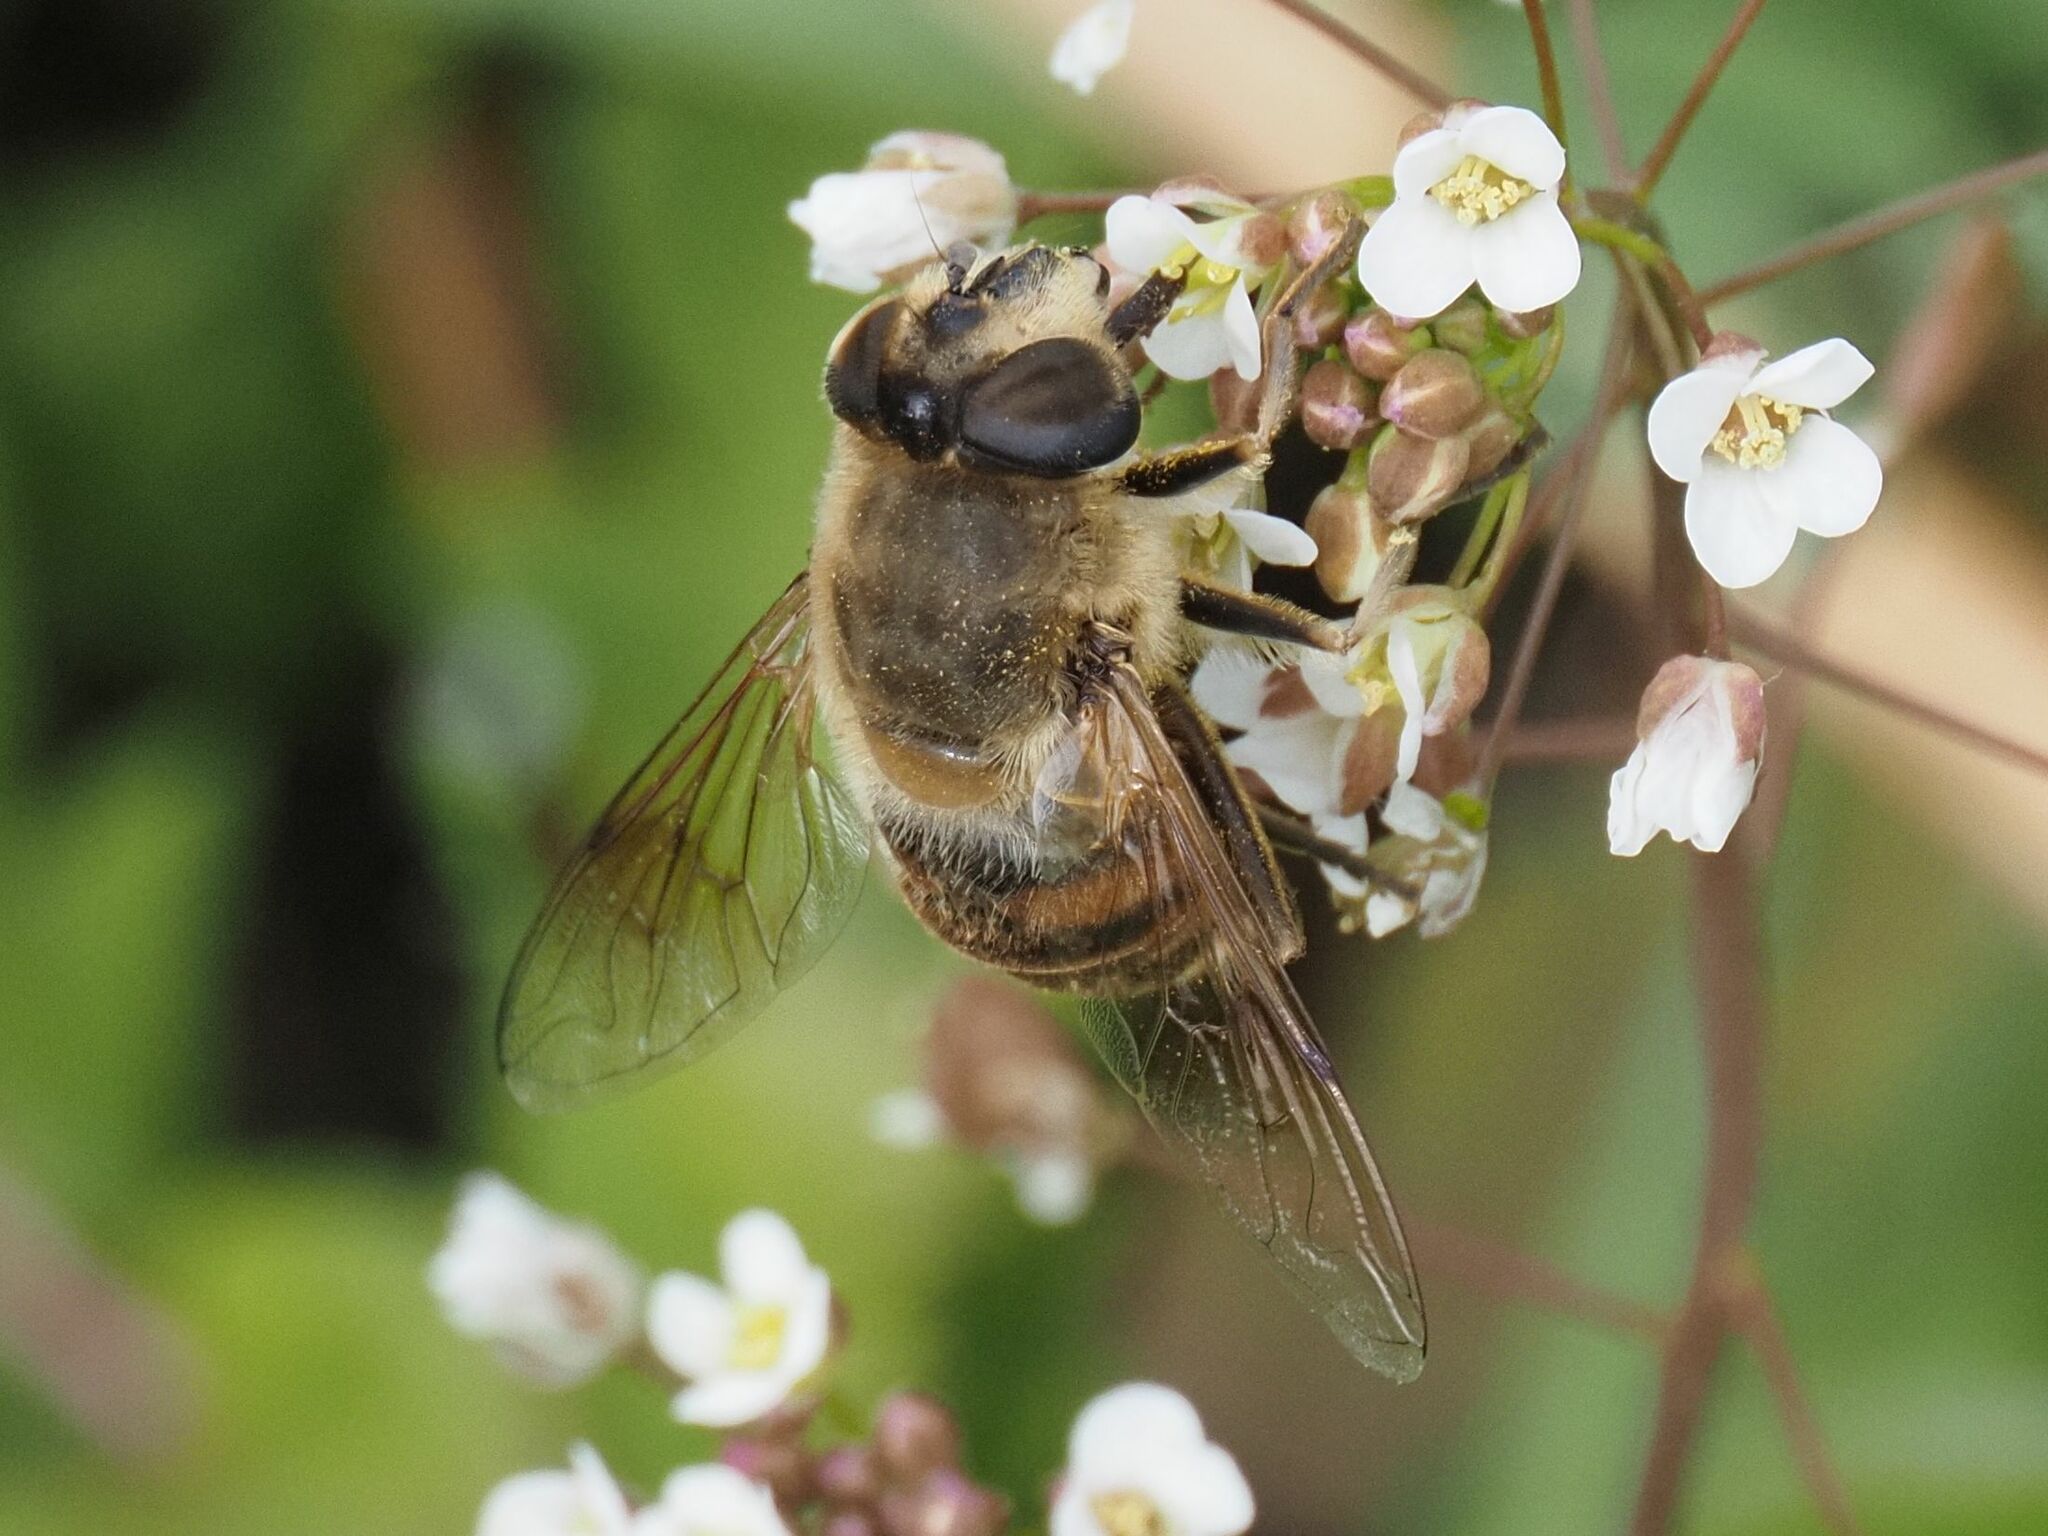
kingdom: Animalia
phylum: Arthropoda
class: Insecta
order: Diptera
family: Syrphidae
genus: Eristalis
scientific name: Eristalis tenax
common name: Drone fly
